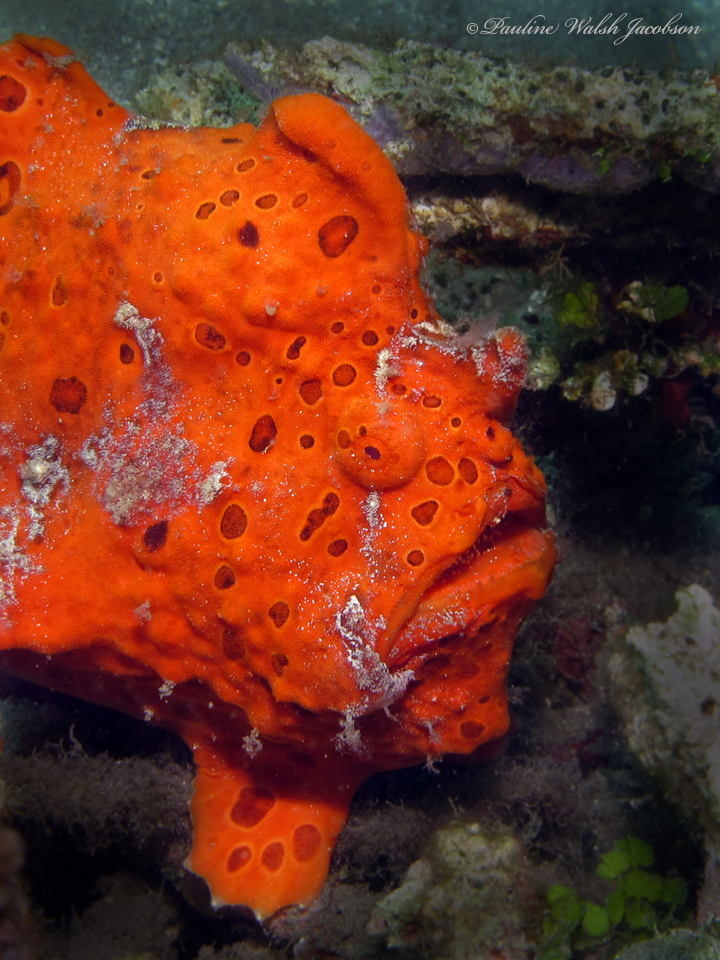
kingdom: Animalia
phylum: Chordata
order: Lophiiformes
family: Antennariidae
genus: Antennarius
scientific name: Antennarius pictus
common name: Painted frogfish
